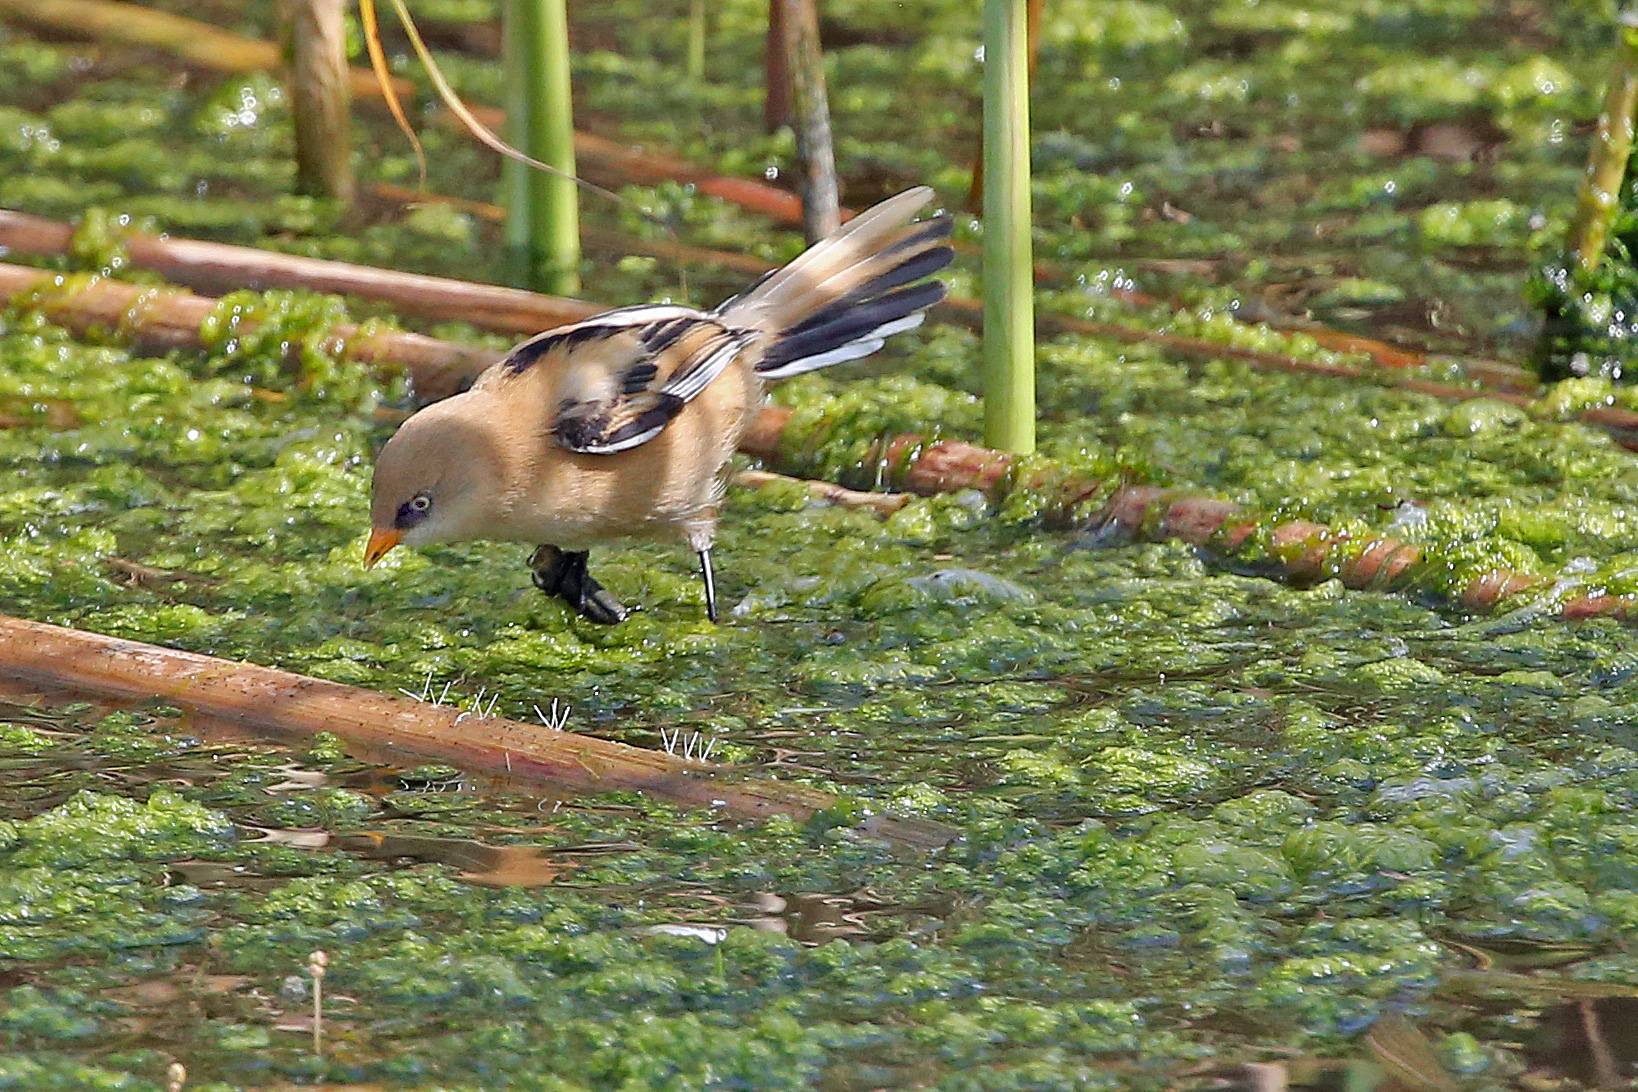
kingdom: Animalia
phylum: Chordata
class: Aves
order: Passeriformes
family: Panuridae
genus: Panurus
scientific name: Panurus biarmicus
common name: Bearded reedling
